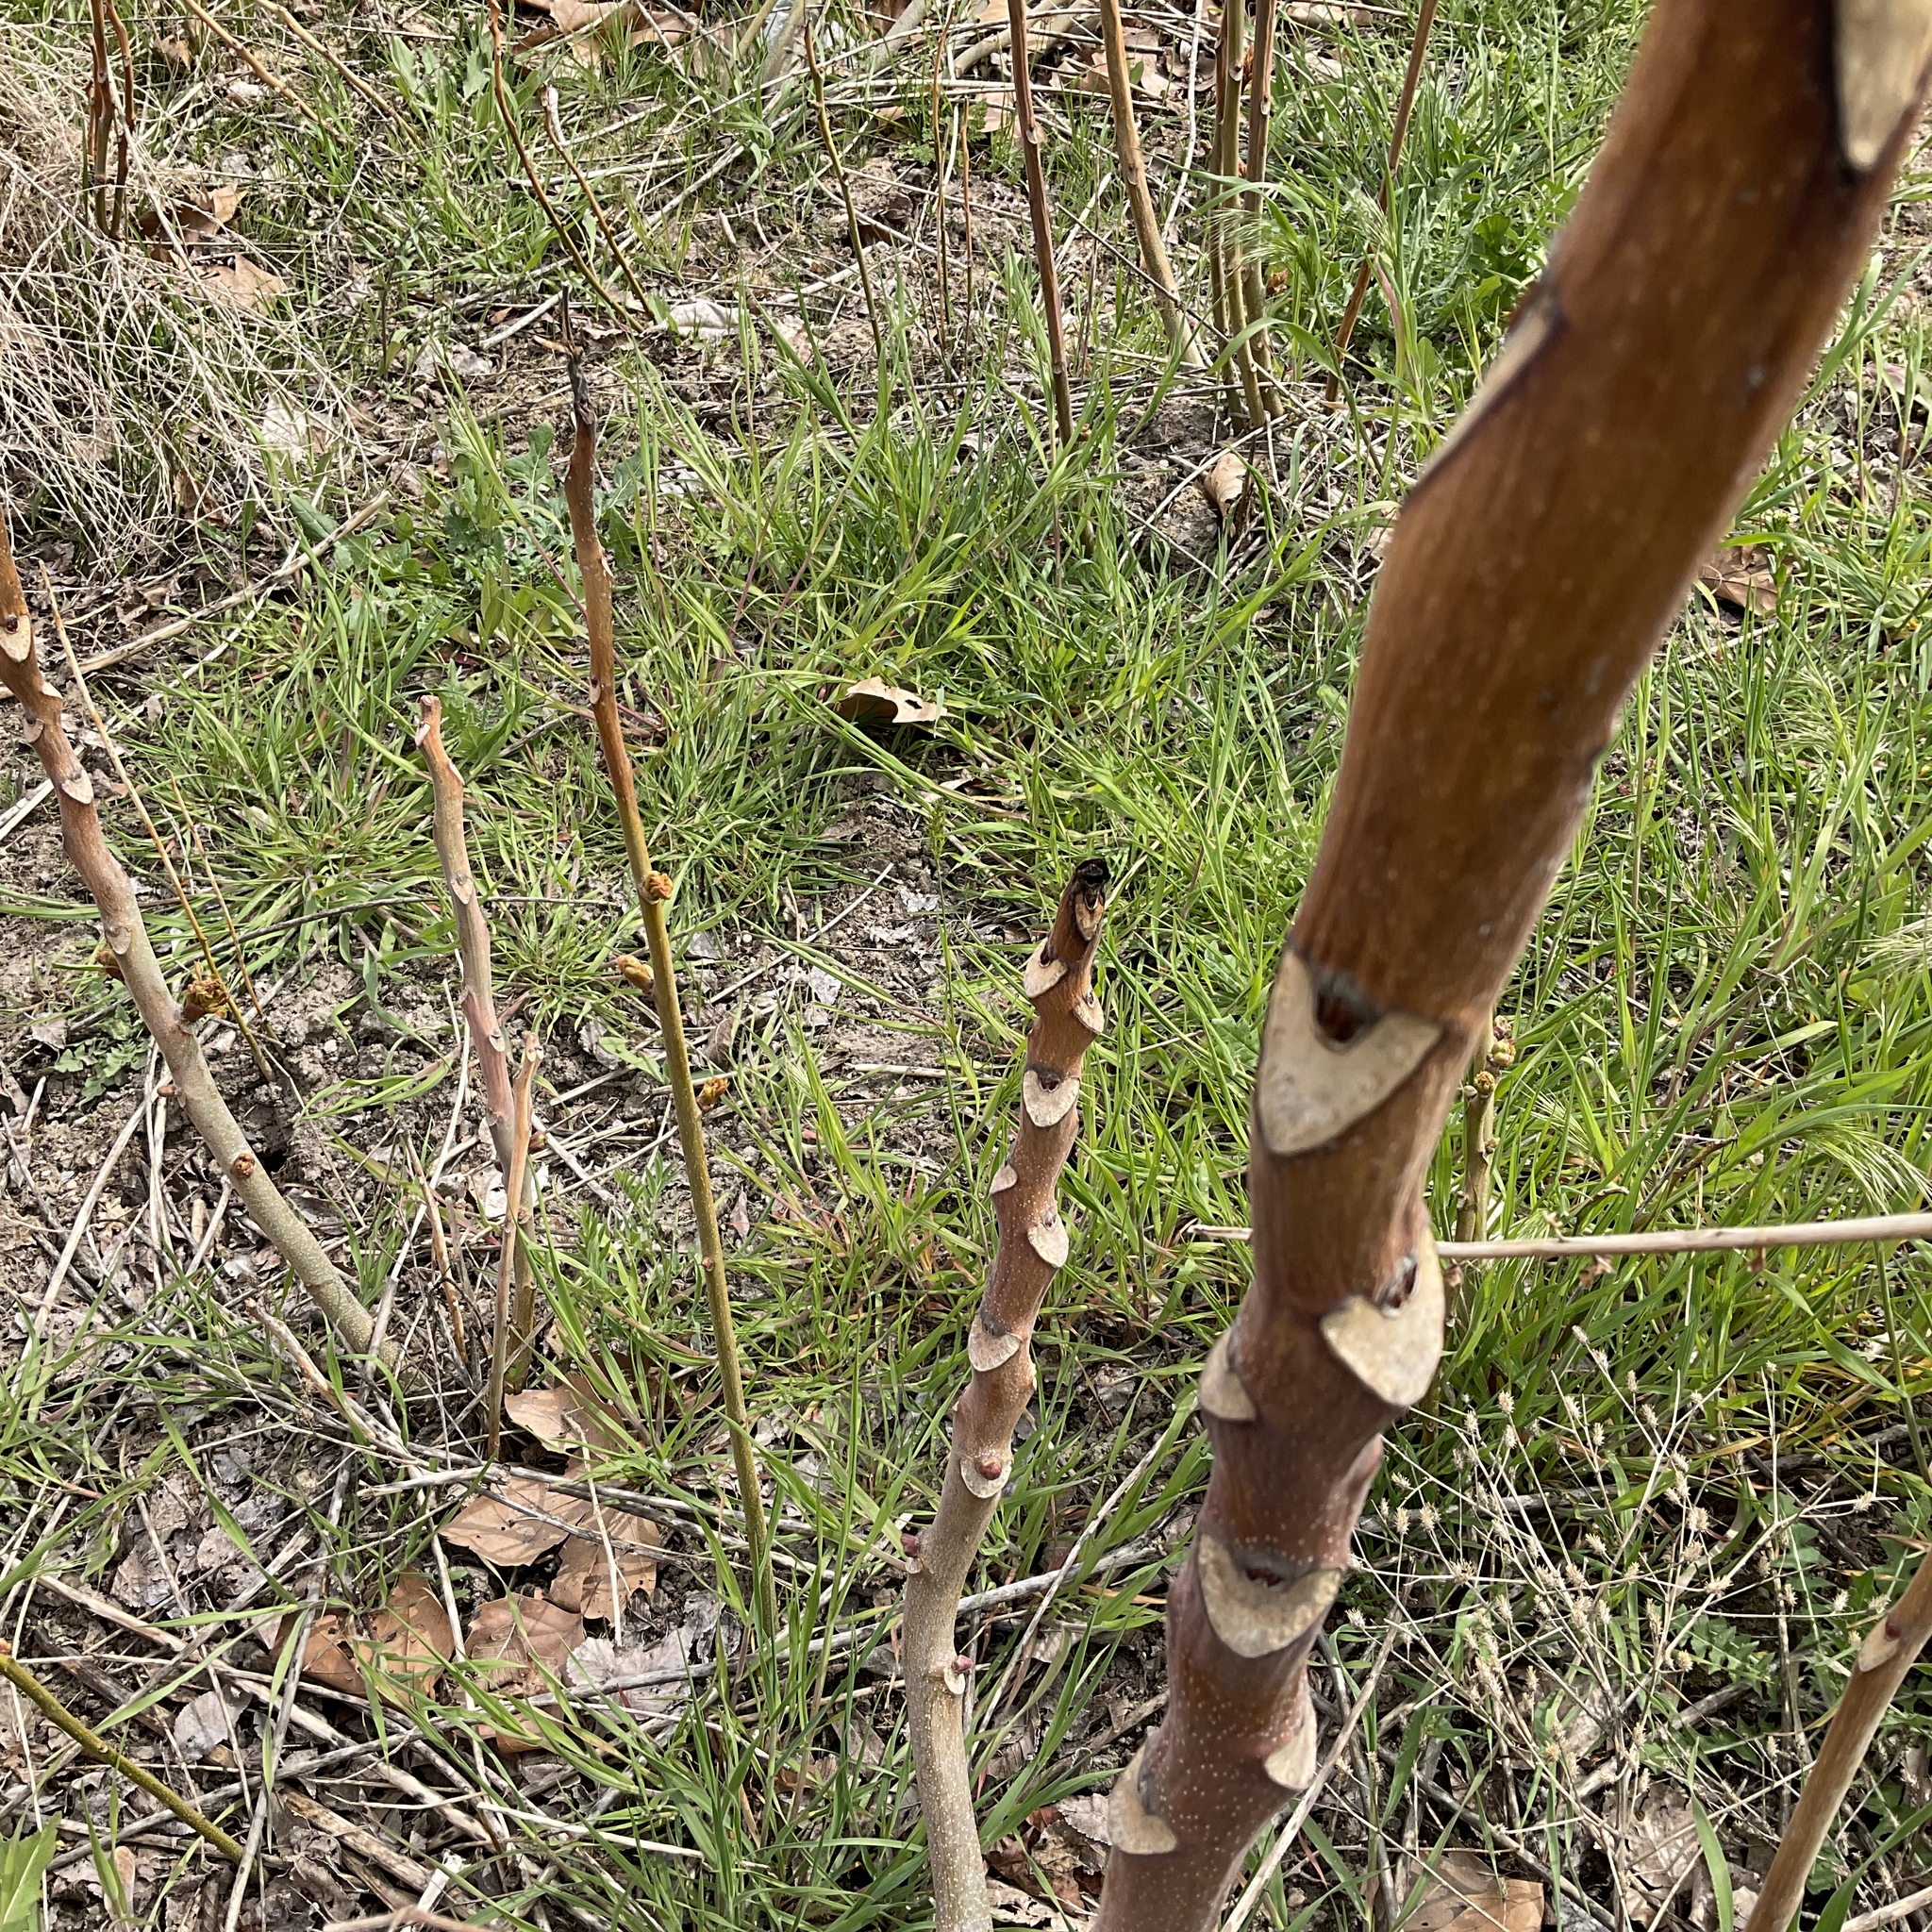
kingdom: Plantae
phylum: Tracheophyta
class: Magnoliopsida
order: Sapindales
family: Simaroubaceae
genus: Ailanthus
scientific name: Ailanthus altissima
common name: Tree-of-heaven
